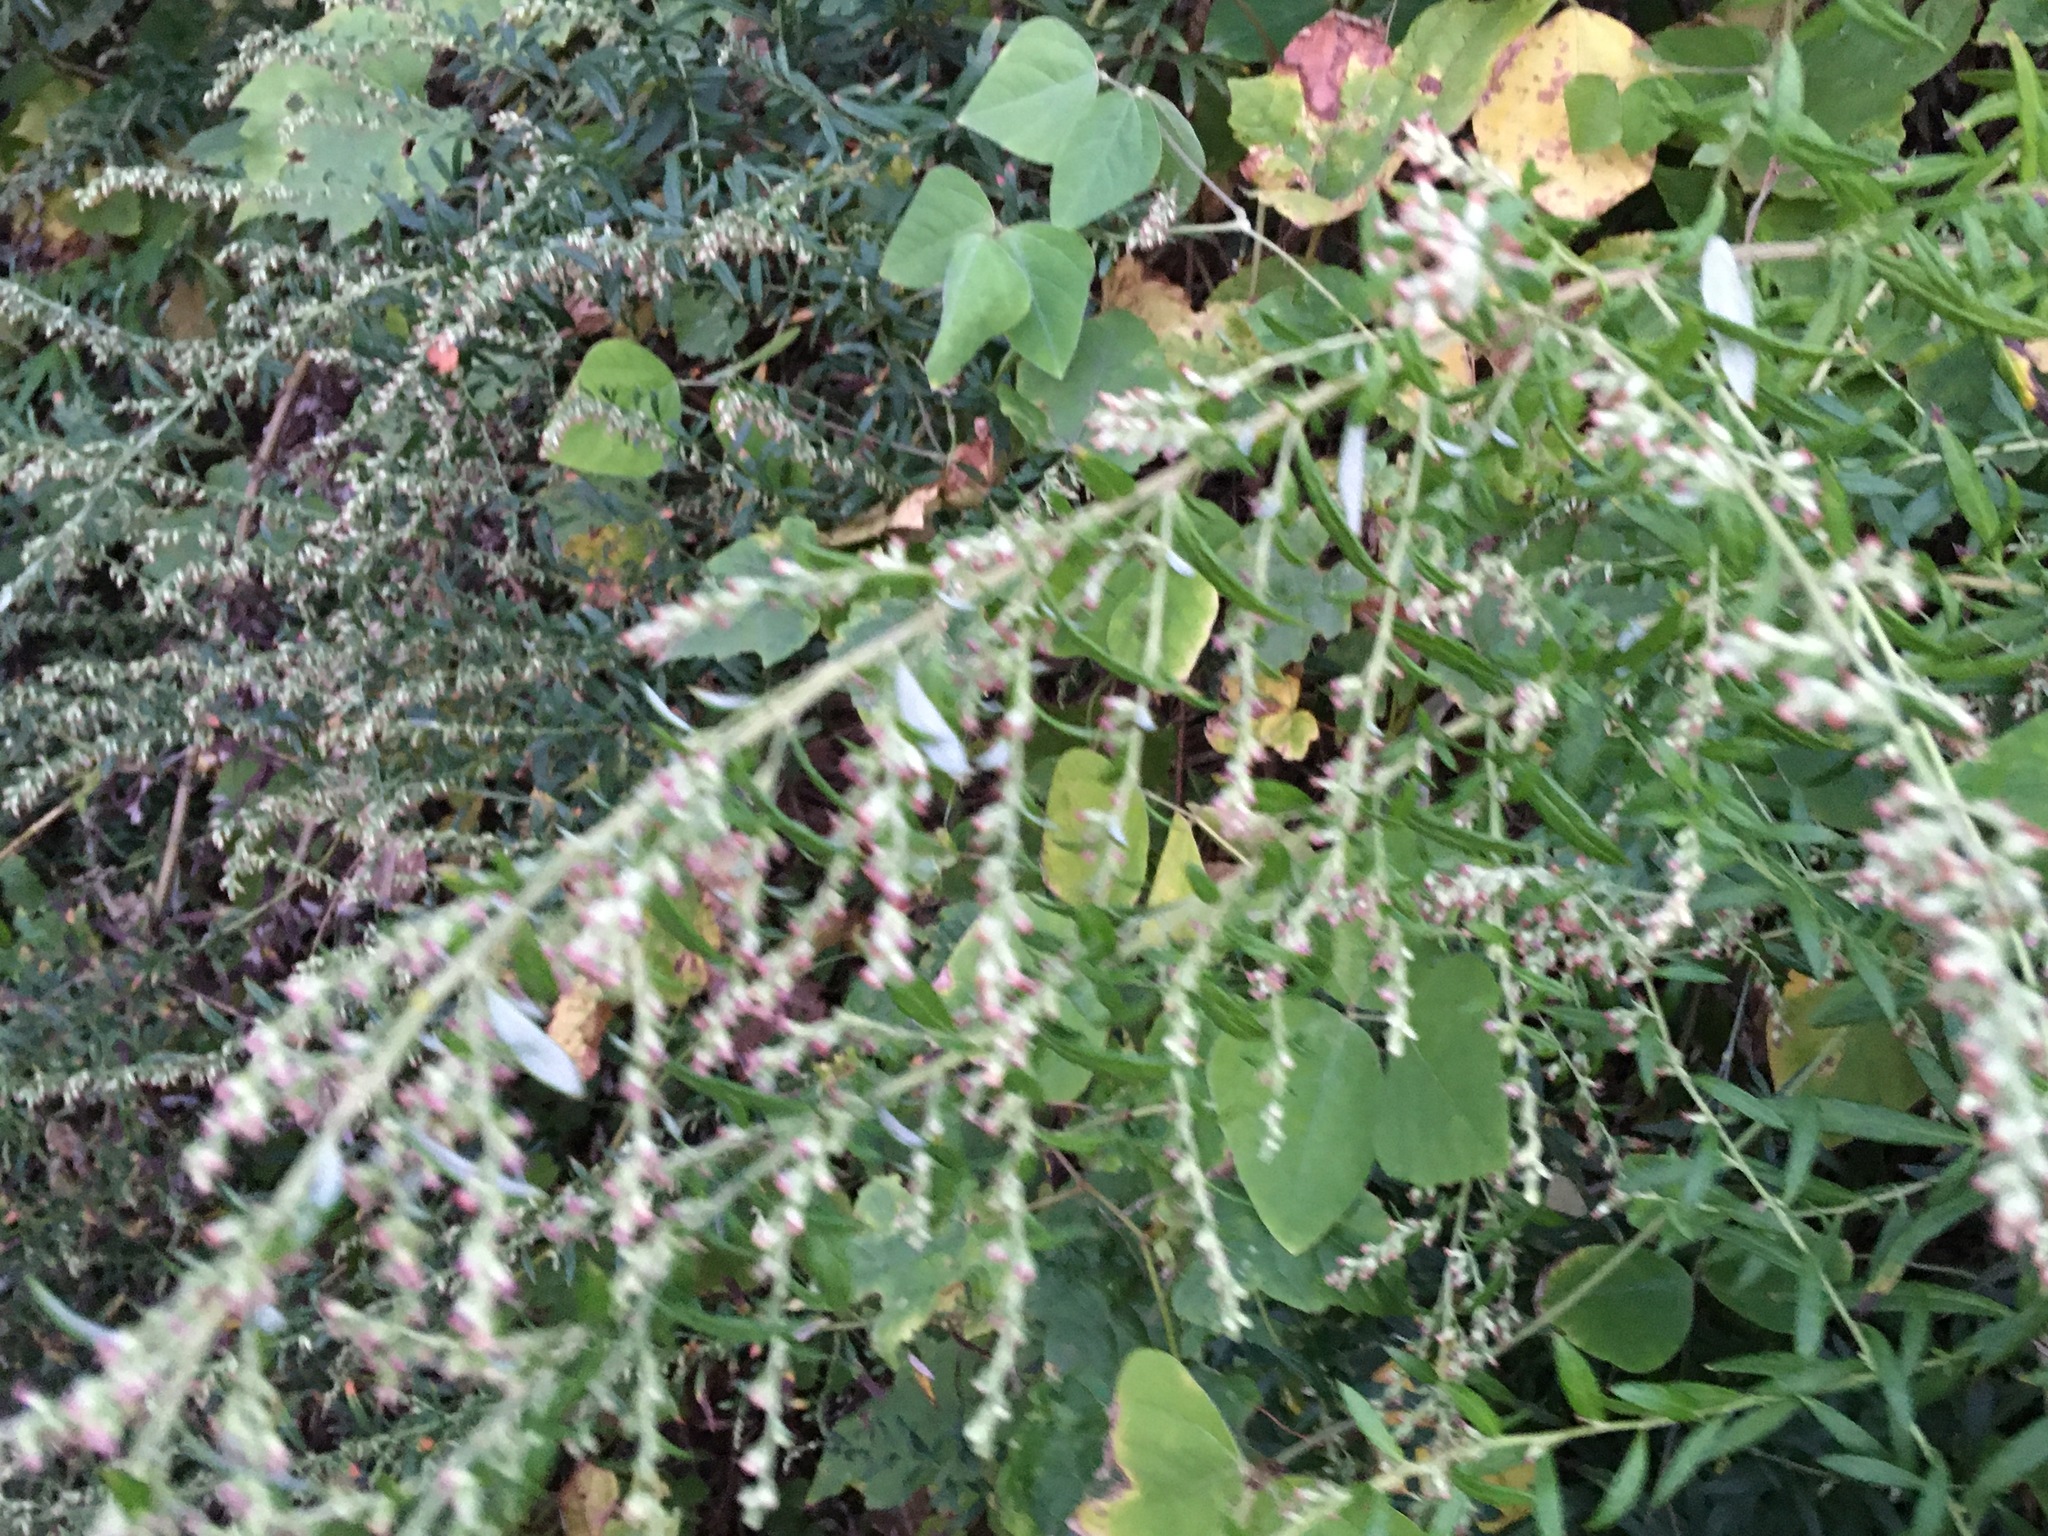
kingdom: Plantae
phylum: Tracheophyta
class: Magnoliopsida
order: Asterales
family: Asteraceae
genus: Artemisia
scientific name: Artemisia vulgaris
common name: Mugwort
